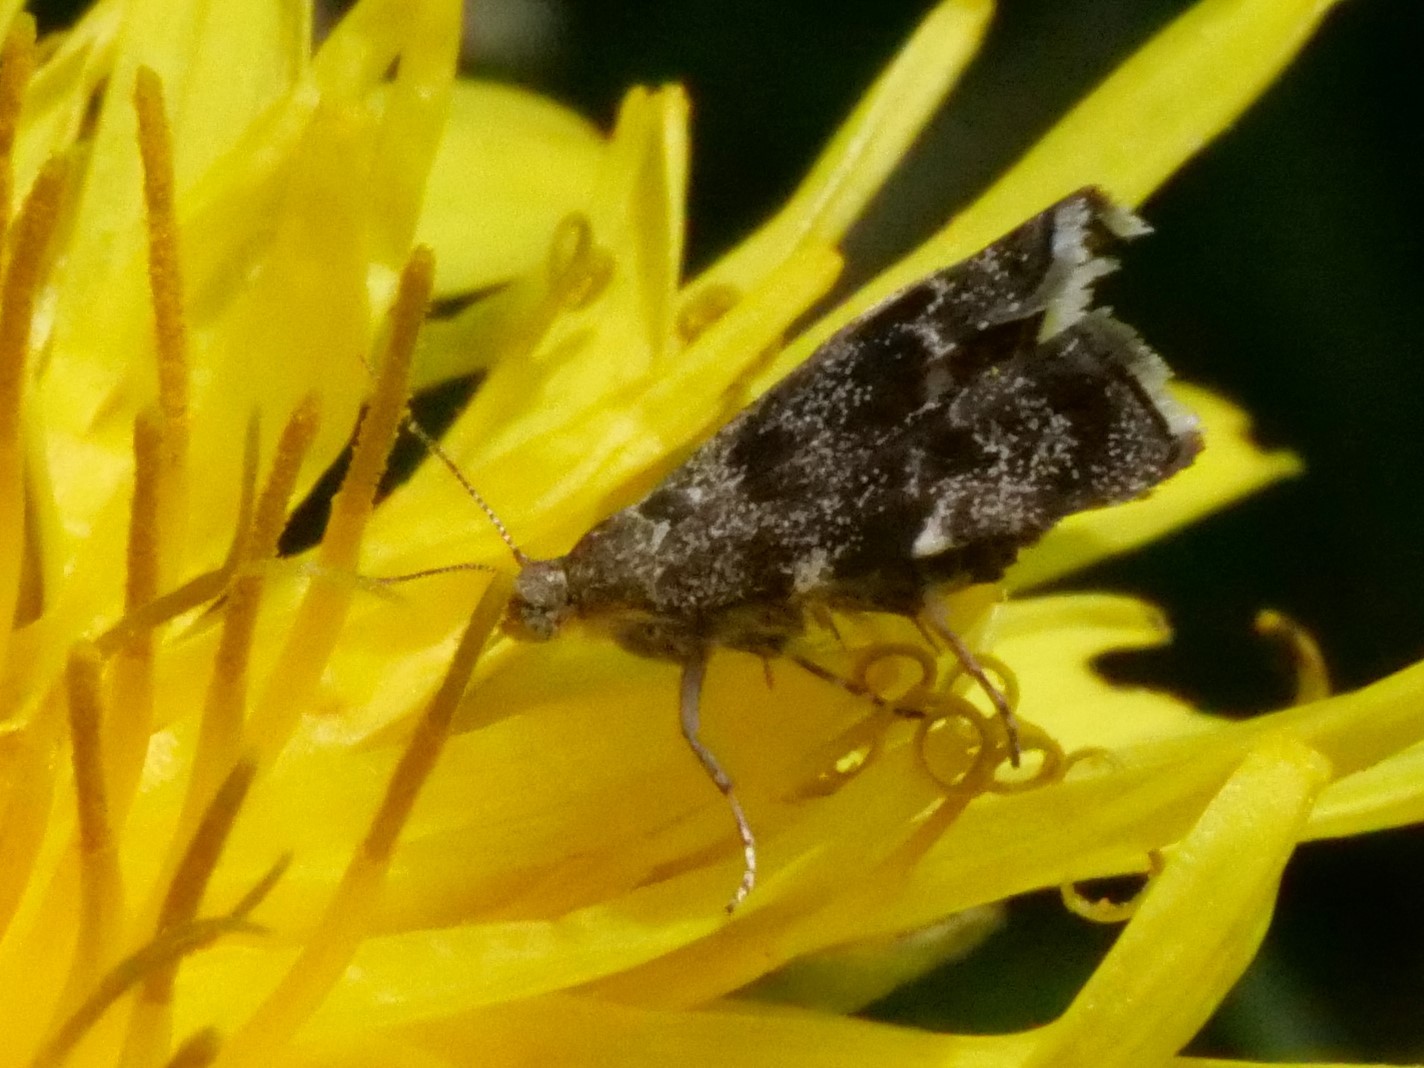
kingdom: Animalia
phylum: Arthropoda
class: Insecta
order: Lepidoptera
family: Choreutidae
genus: Anthophila
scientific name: Anthophila fabriciana
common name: Nettle-tap
